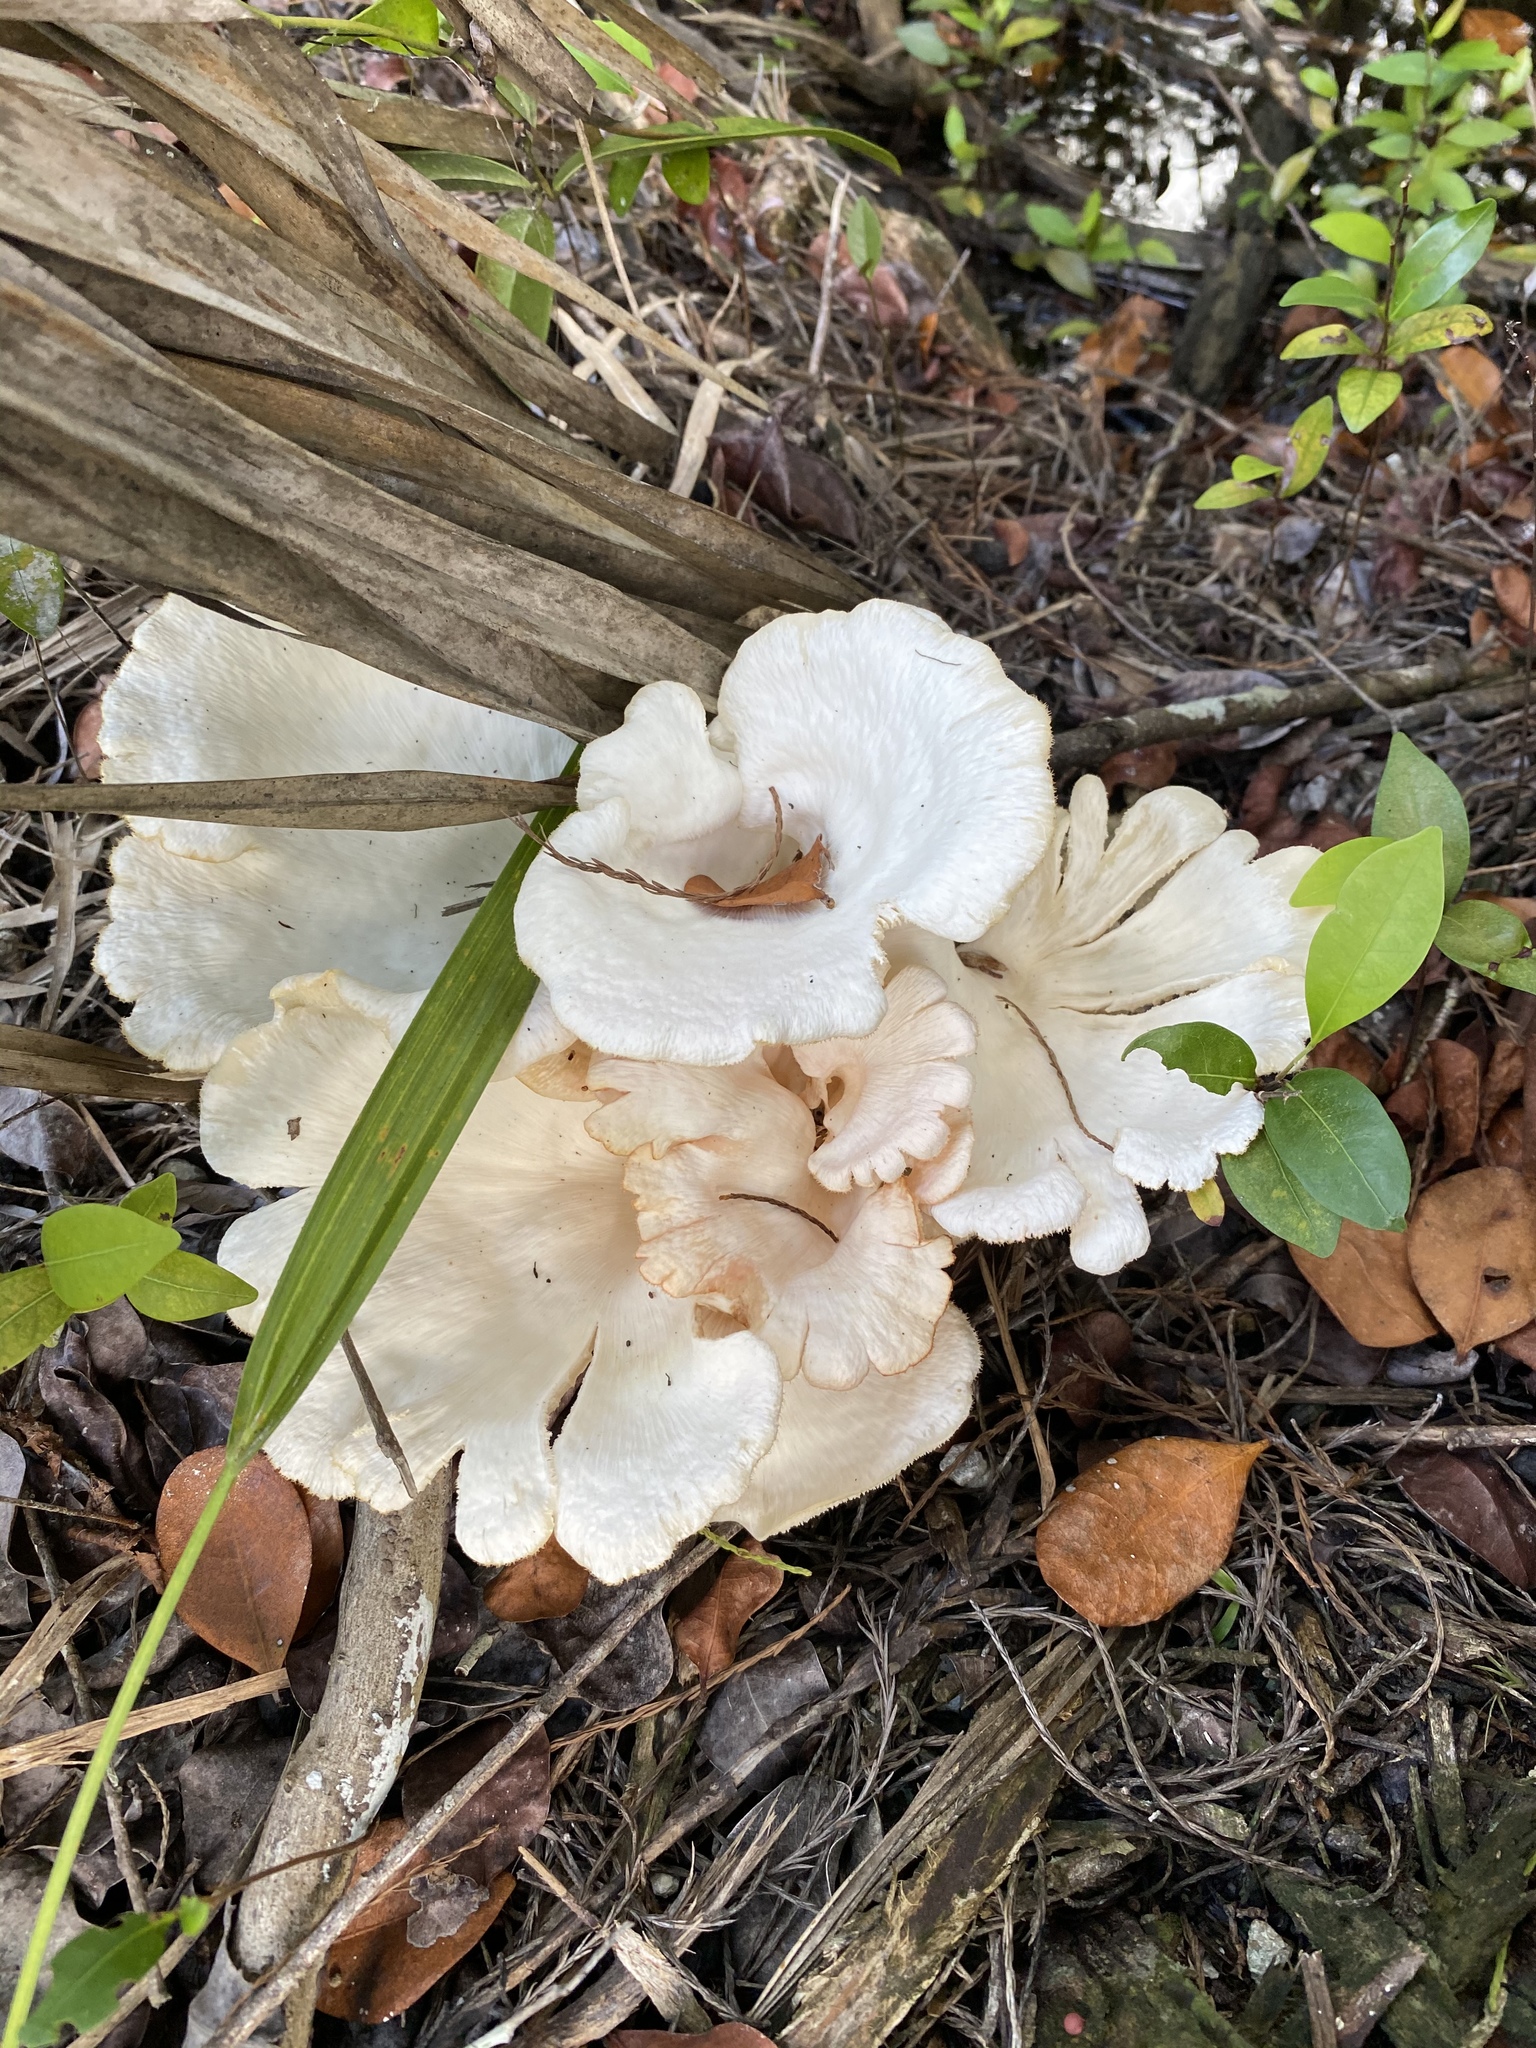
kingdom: Fungi
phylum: Basidiomycota
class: Agaricomycetes
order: Polyporales
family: Polyporaceae
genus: Favolus
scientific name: Favolus tenuiculus
